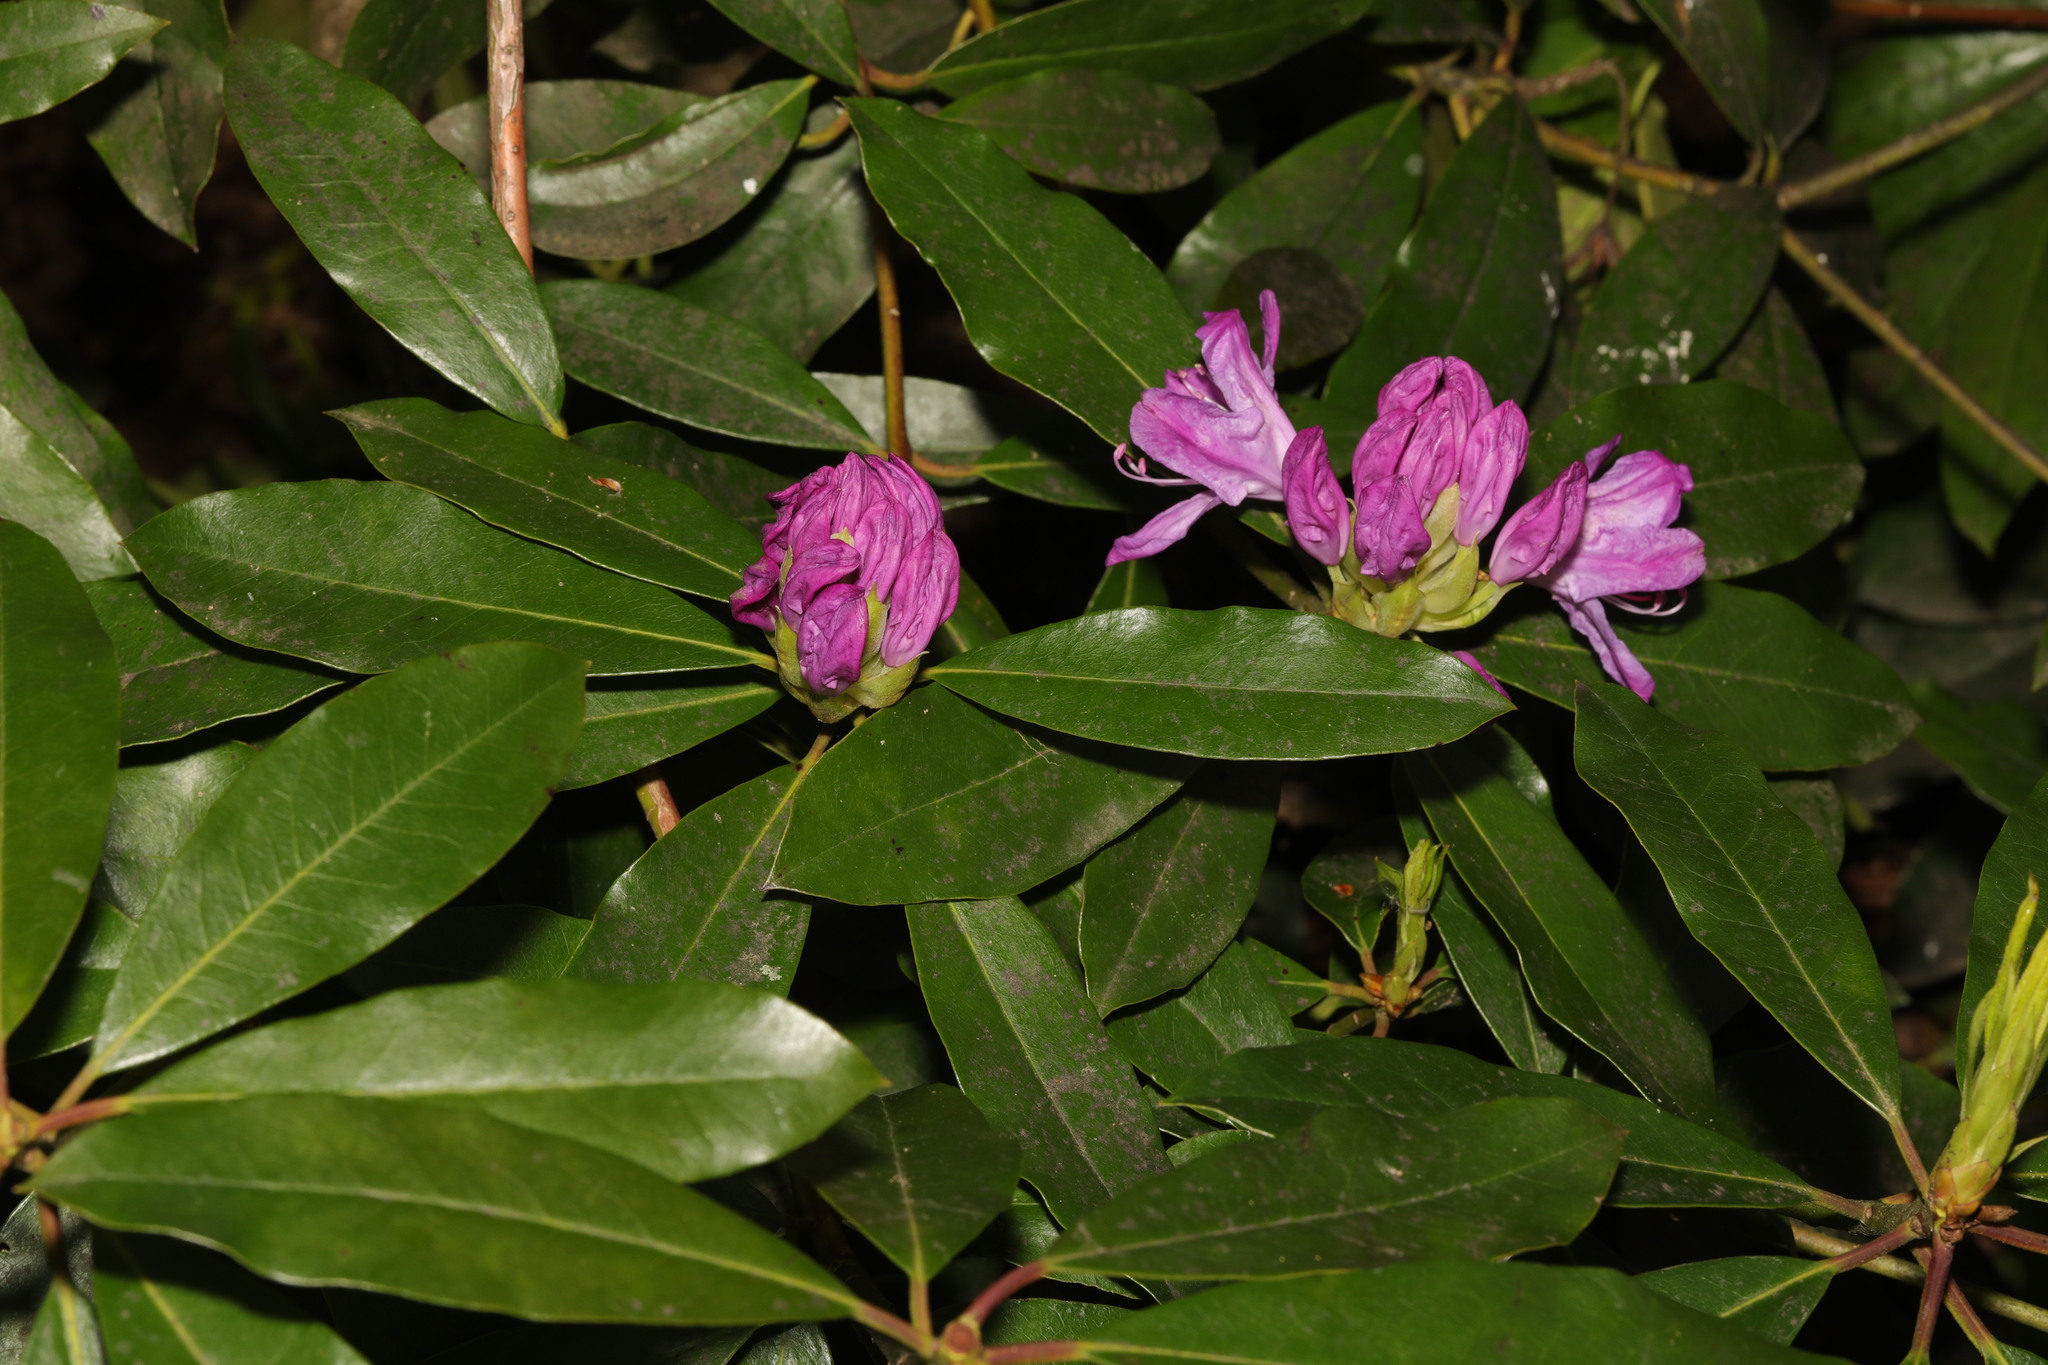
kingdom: Plantae
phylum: Tracheophyta
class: Magnoliopsida
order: Ericales
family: Ericaceae
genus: Rhododendron
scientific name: Rhododendron ponticum
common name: Rhododendron
